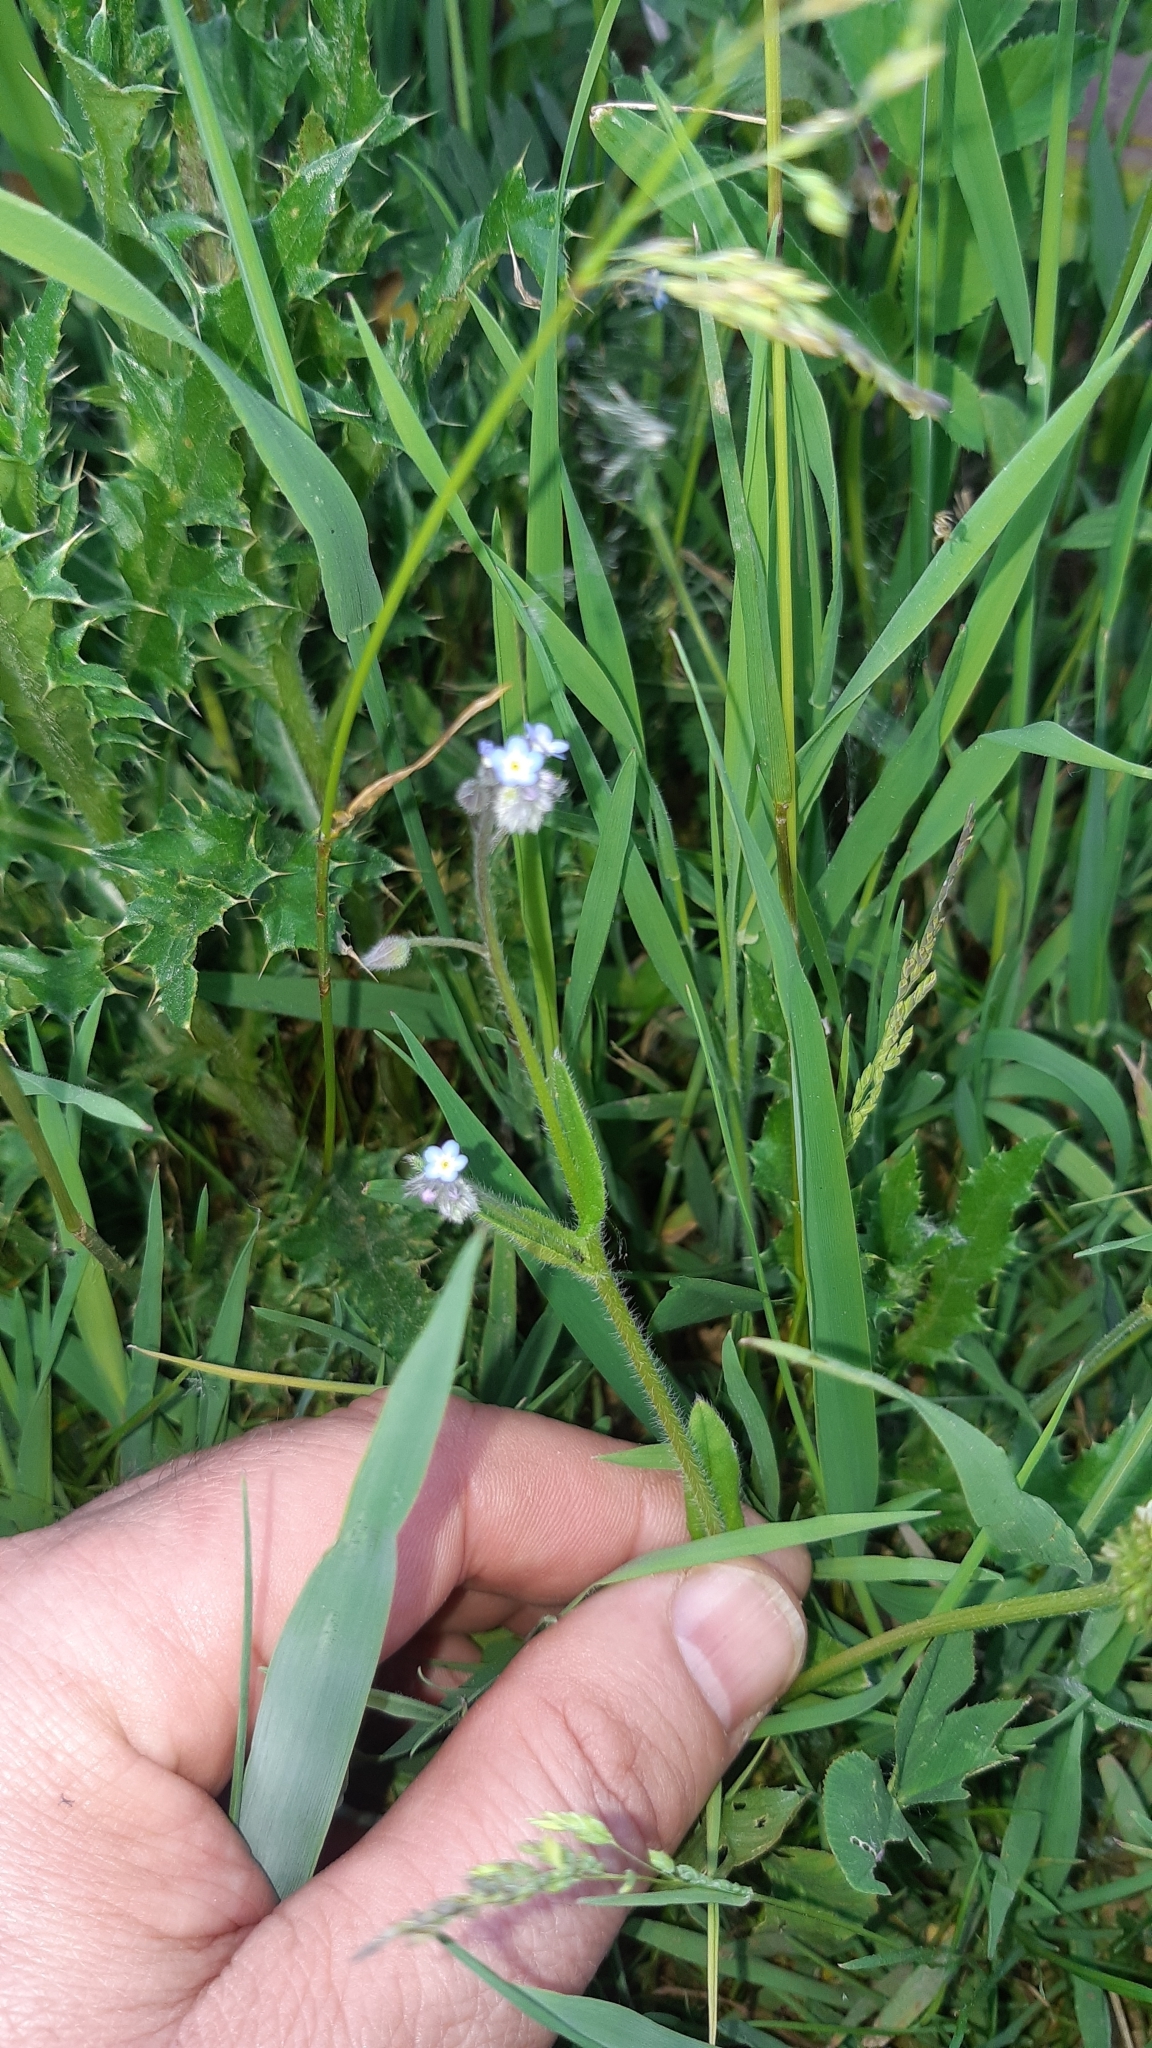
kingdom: Plantae
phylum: Tracheophyta
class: Magnoliopsida
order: Boraginales
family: Boraginaceae
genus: Myosotis
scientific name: Myosotis arvensis
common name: Field forget-me-not
